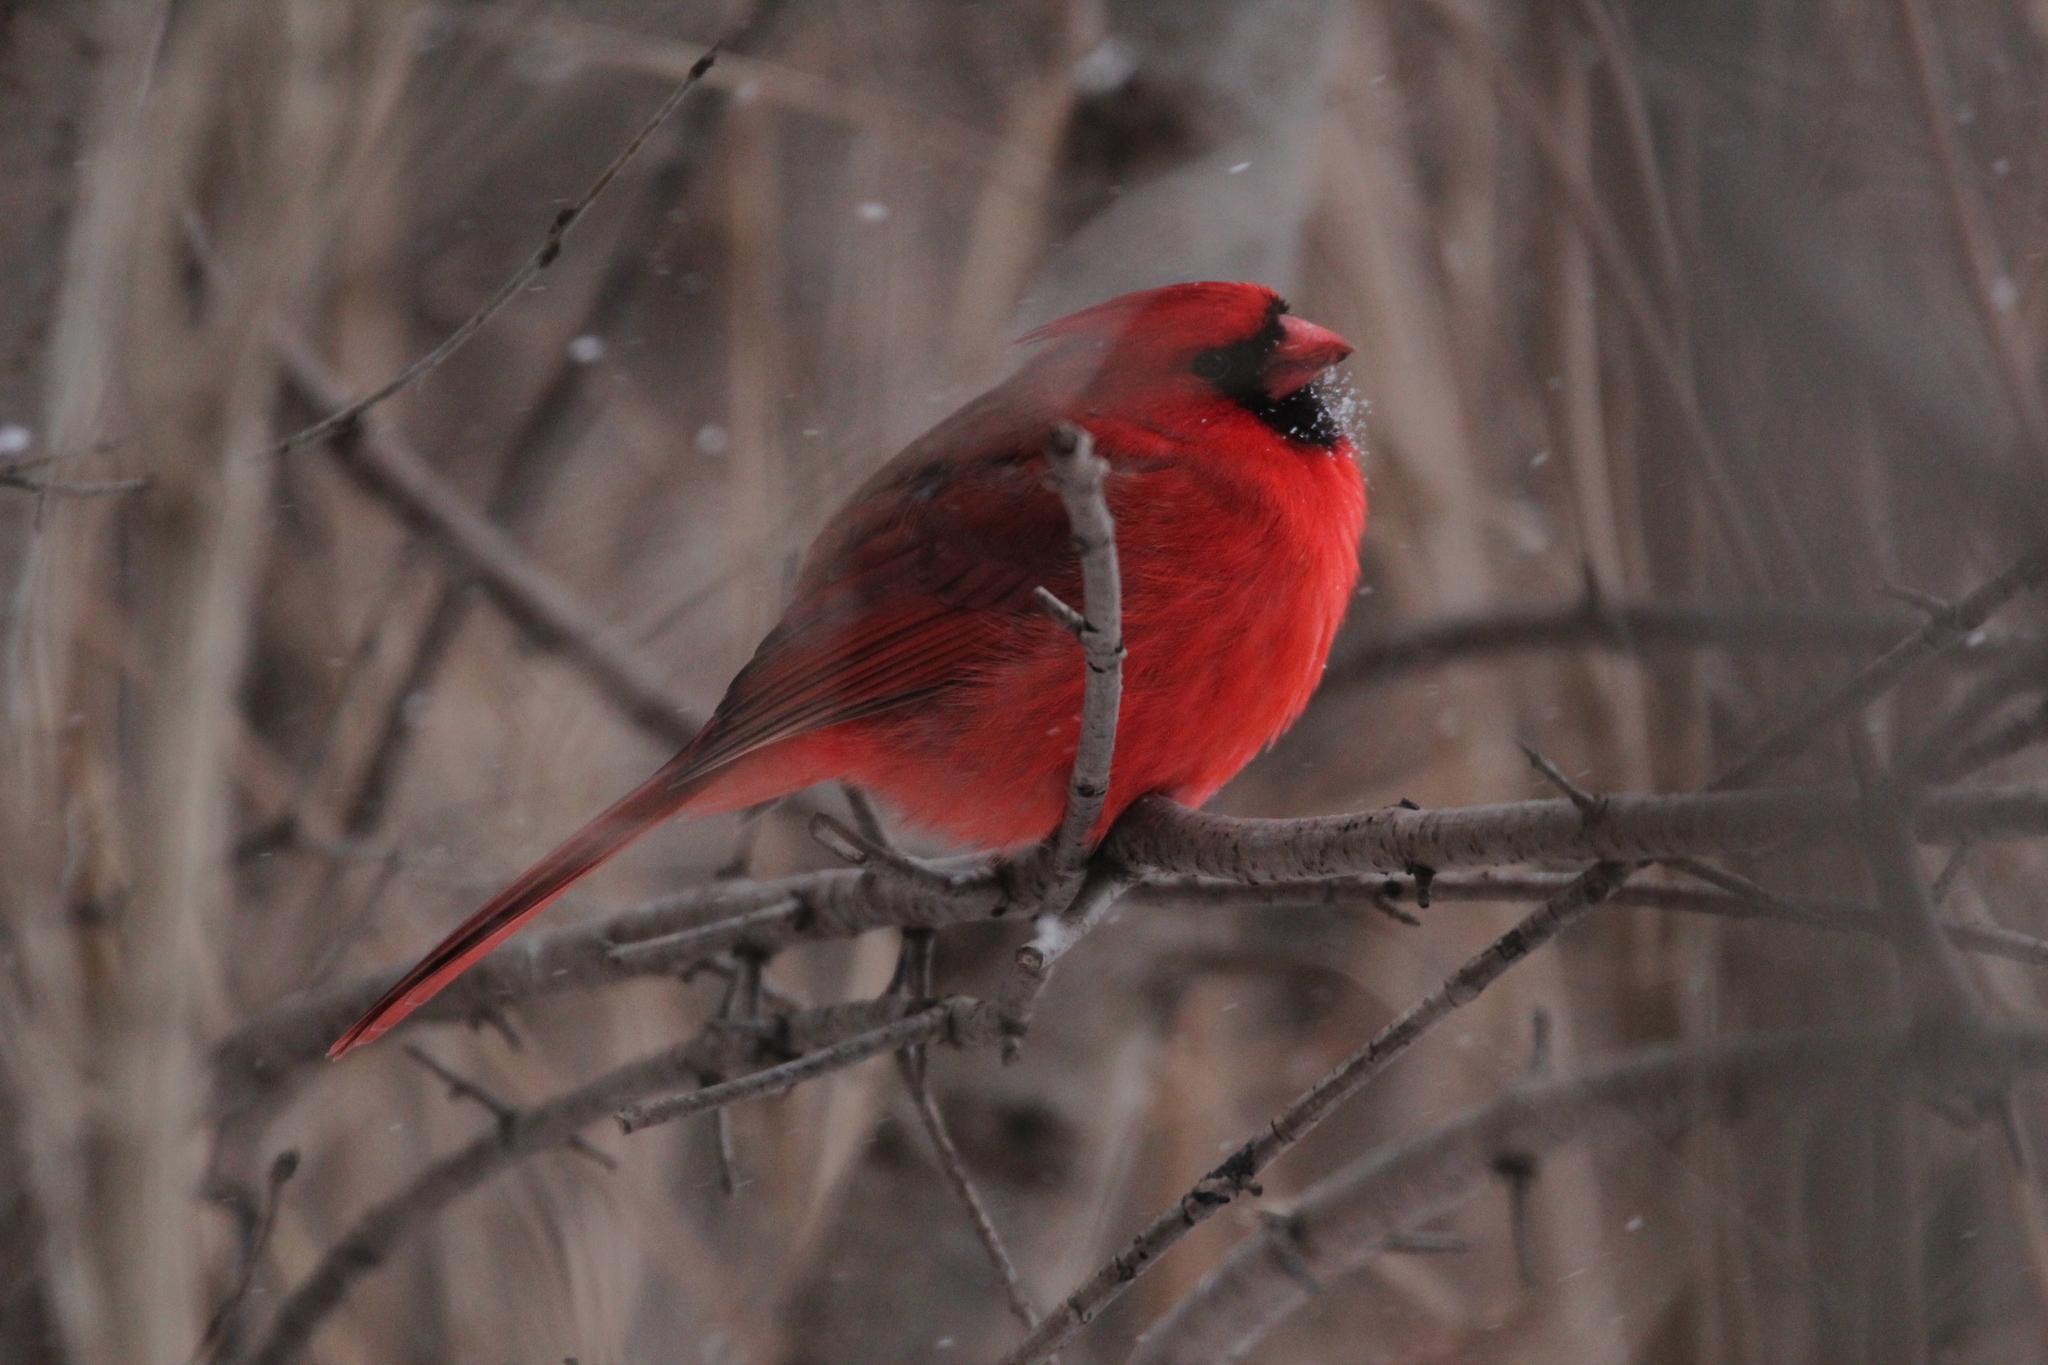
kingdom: Animalia
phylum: Chordata
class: Aves
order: Passeriformes
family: Cardinalidae
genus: Cardinalis
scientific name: Cardinalis cardinalis
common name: Northern cardinal
